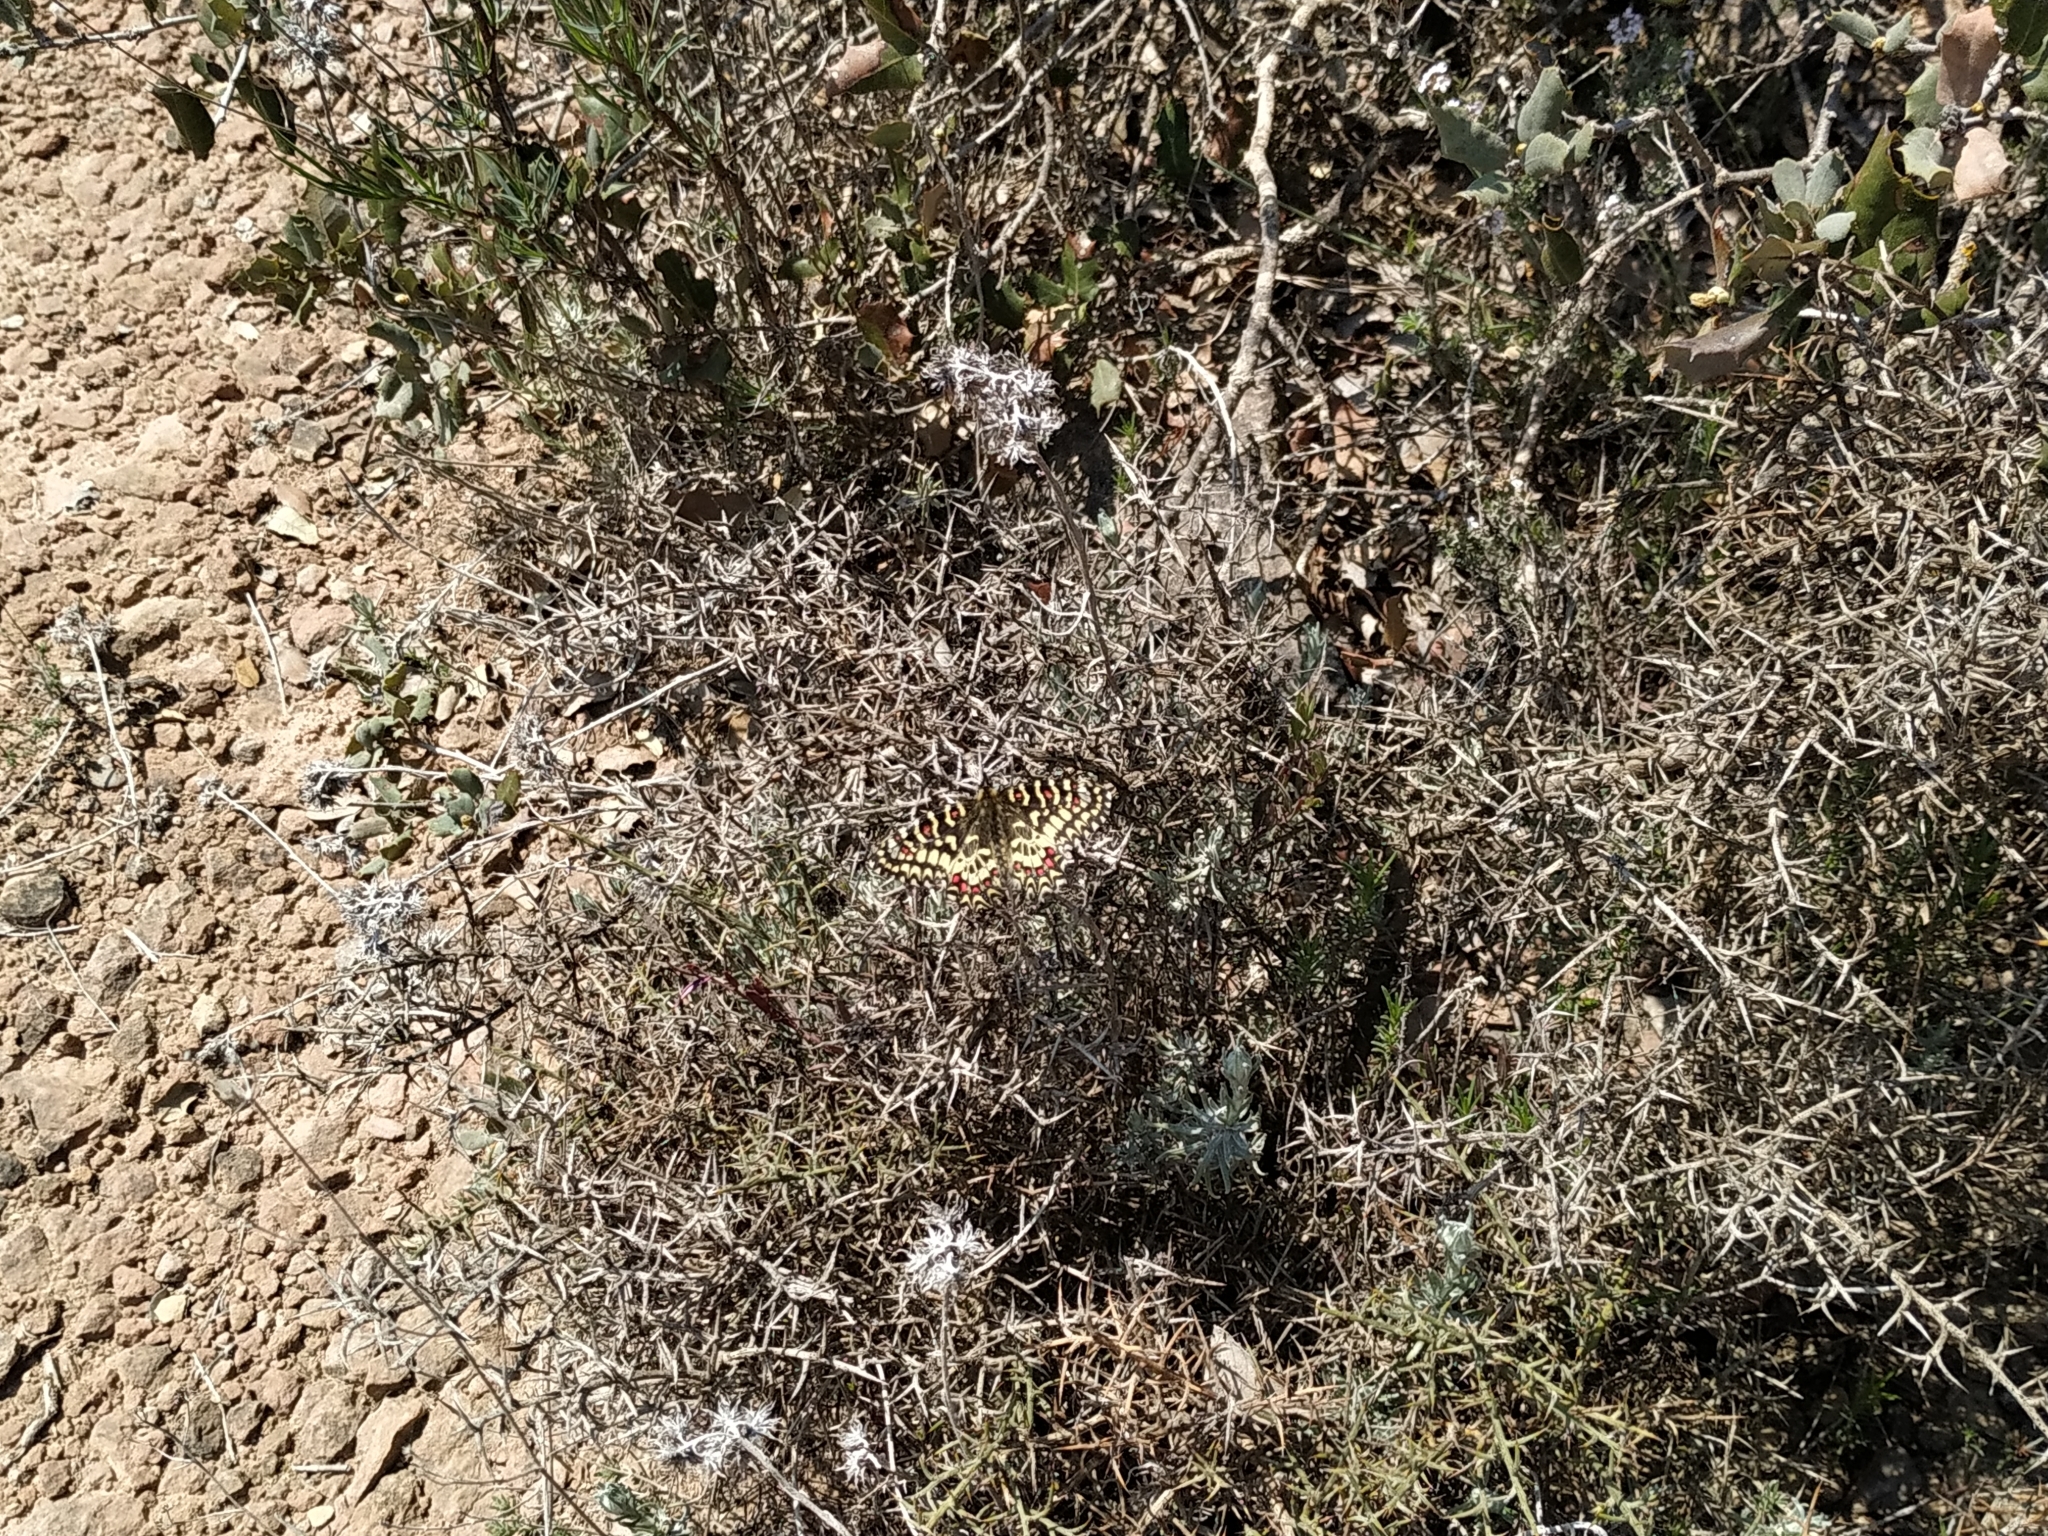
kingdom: Animalia
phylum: Arthropoda
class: Insecta
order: Lepidoptera
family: Papilionidae
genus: Zerynthia
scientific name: Zerynthia rumina
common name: Spanish festoon
